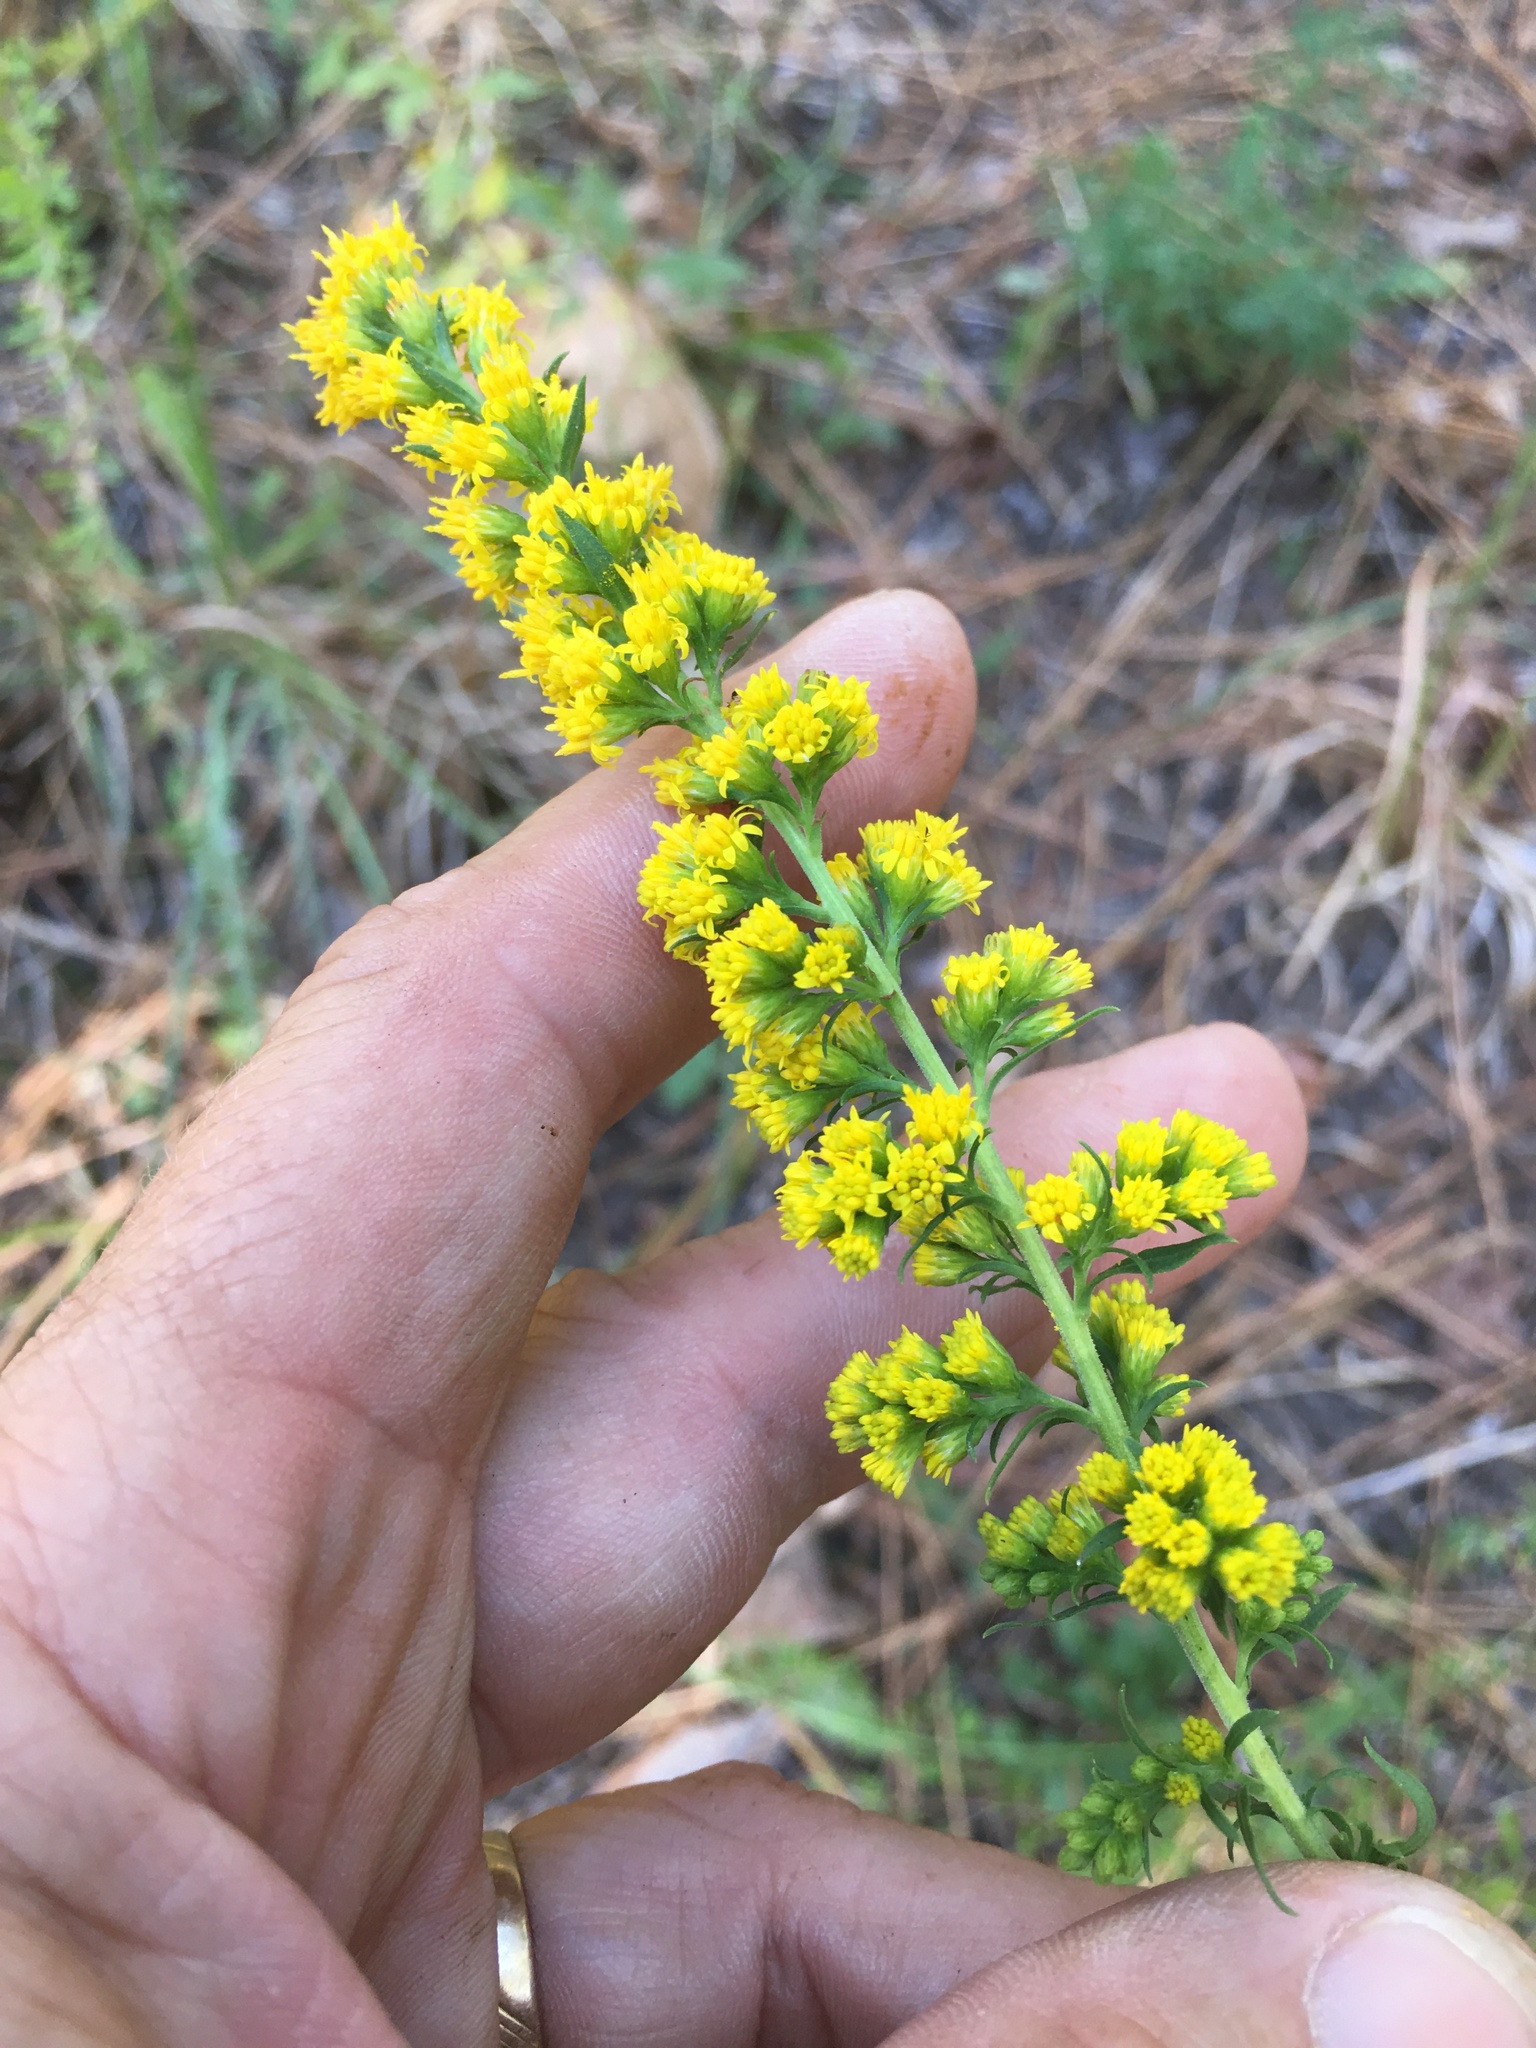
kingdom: Plantae
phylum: Tracheophyta
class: Magnoliopsida
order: Asterales
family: Asteraceae
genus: Solidago
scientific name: Solidago erecta
